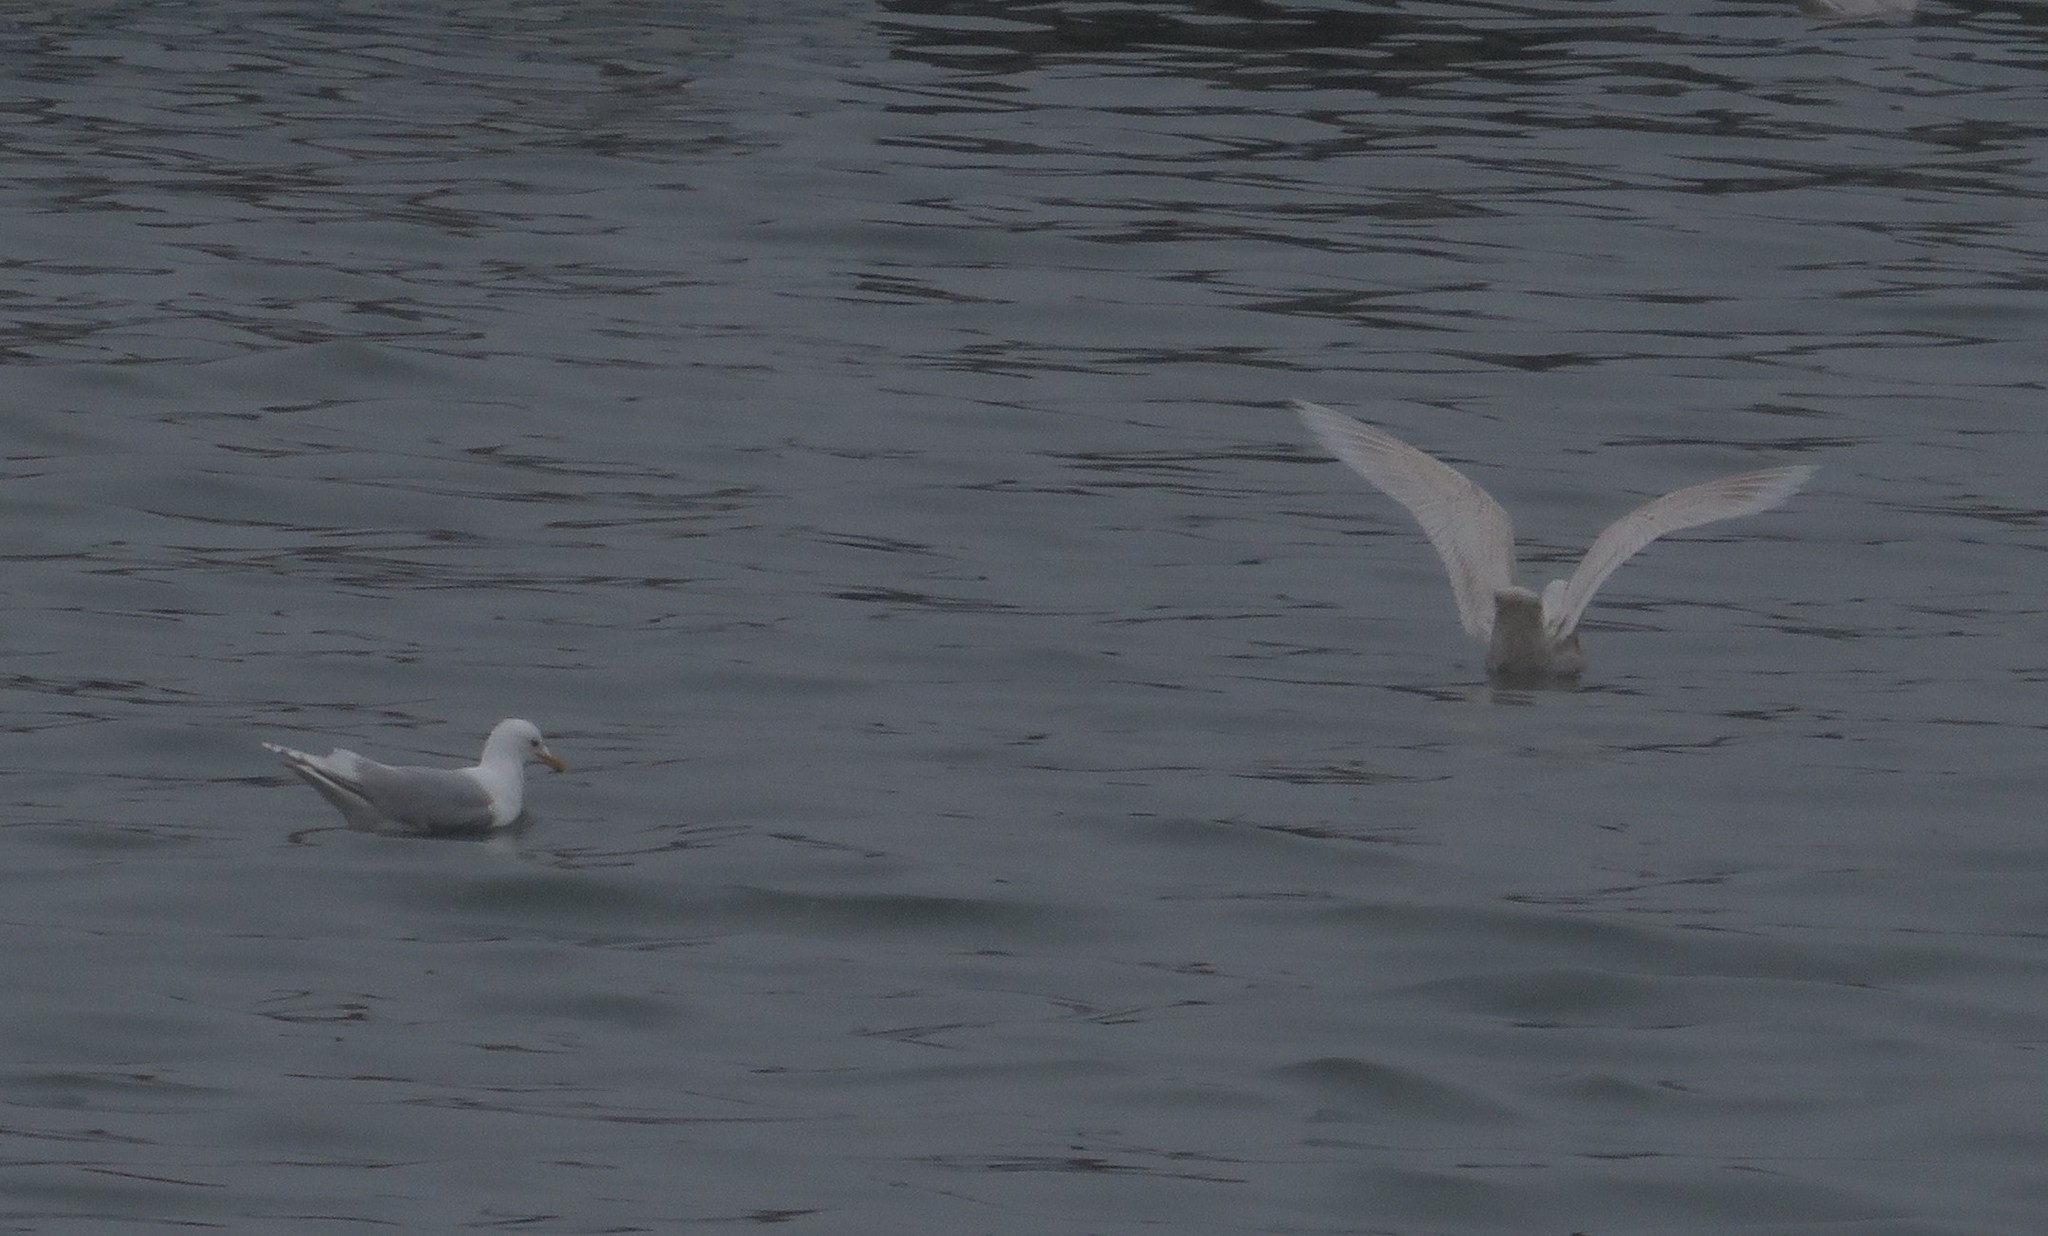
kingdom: Animalia
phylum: Chordata
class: Aves
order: Charadriiformes
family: Laridae
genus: Larus
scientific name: Larus glaucoides
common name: Iceland gull
